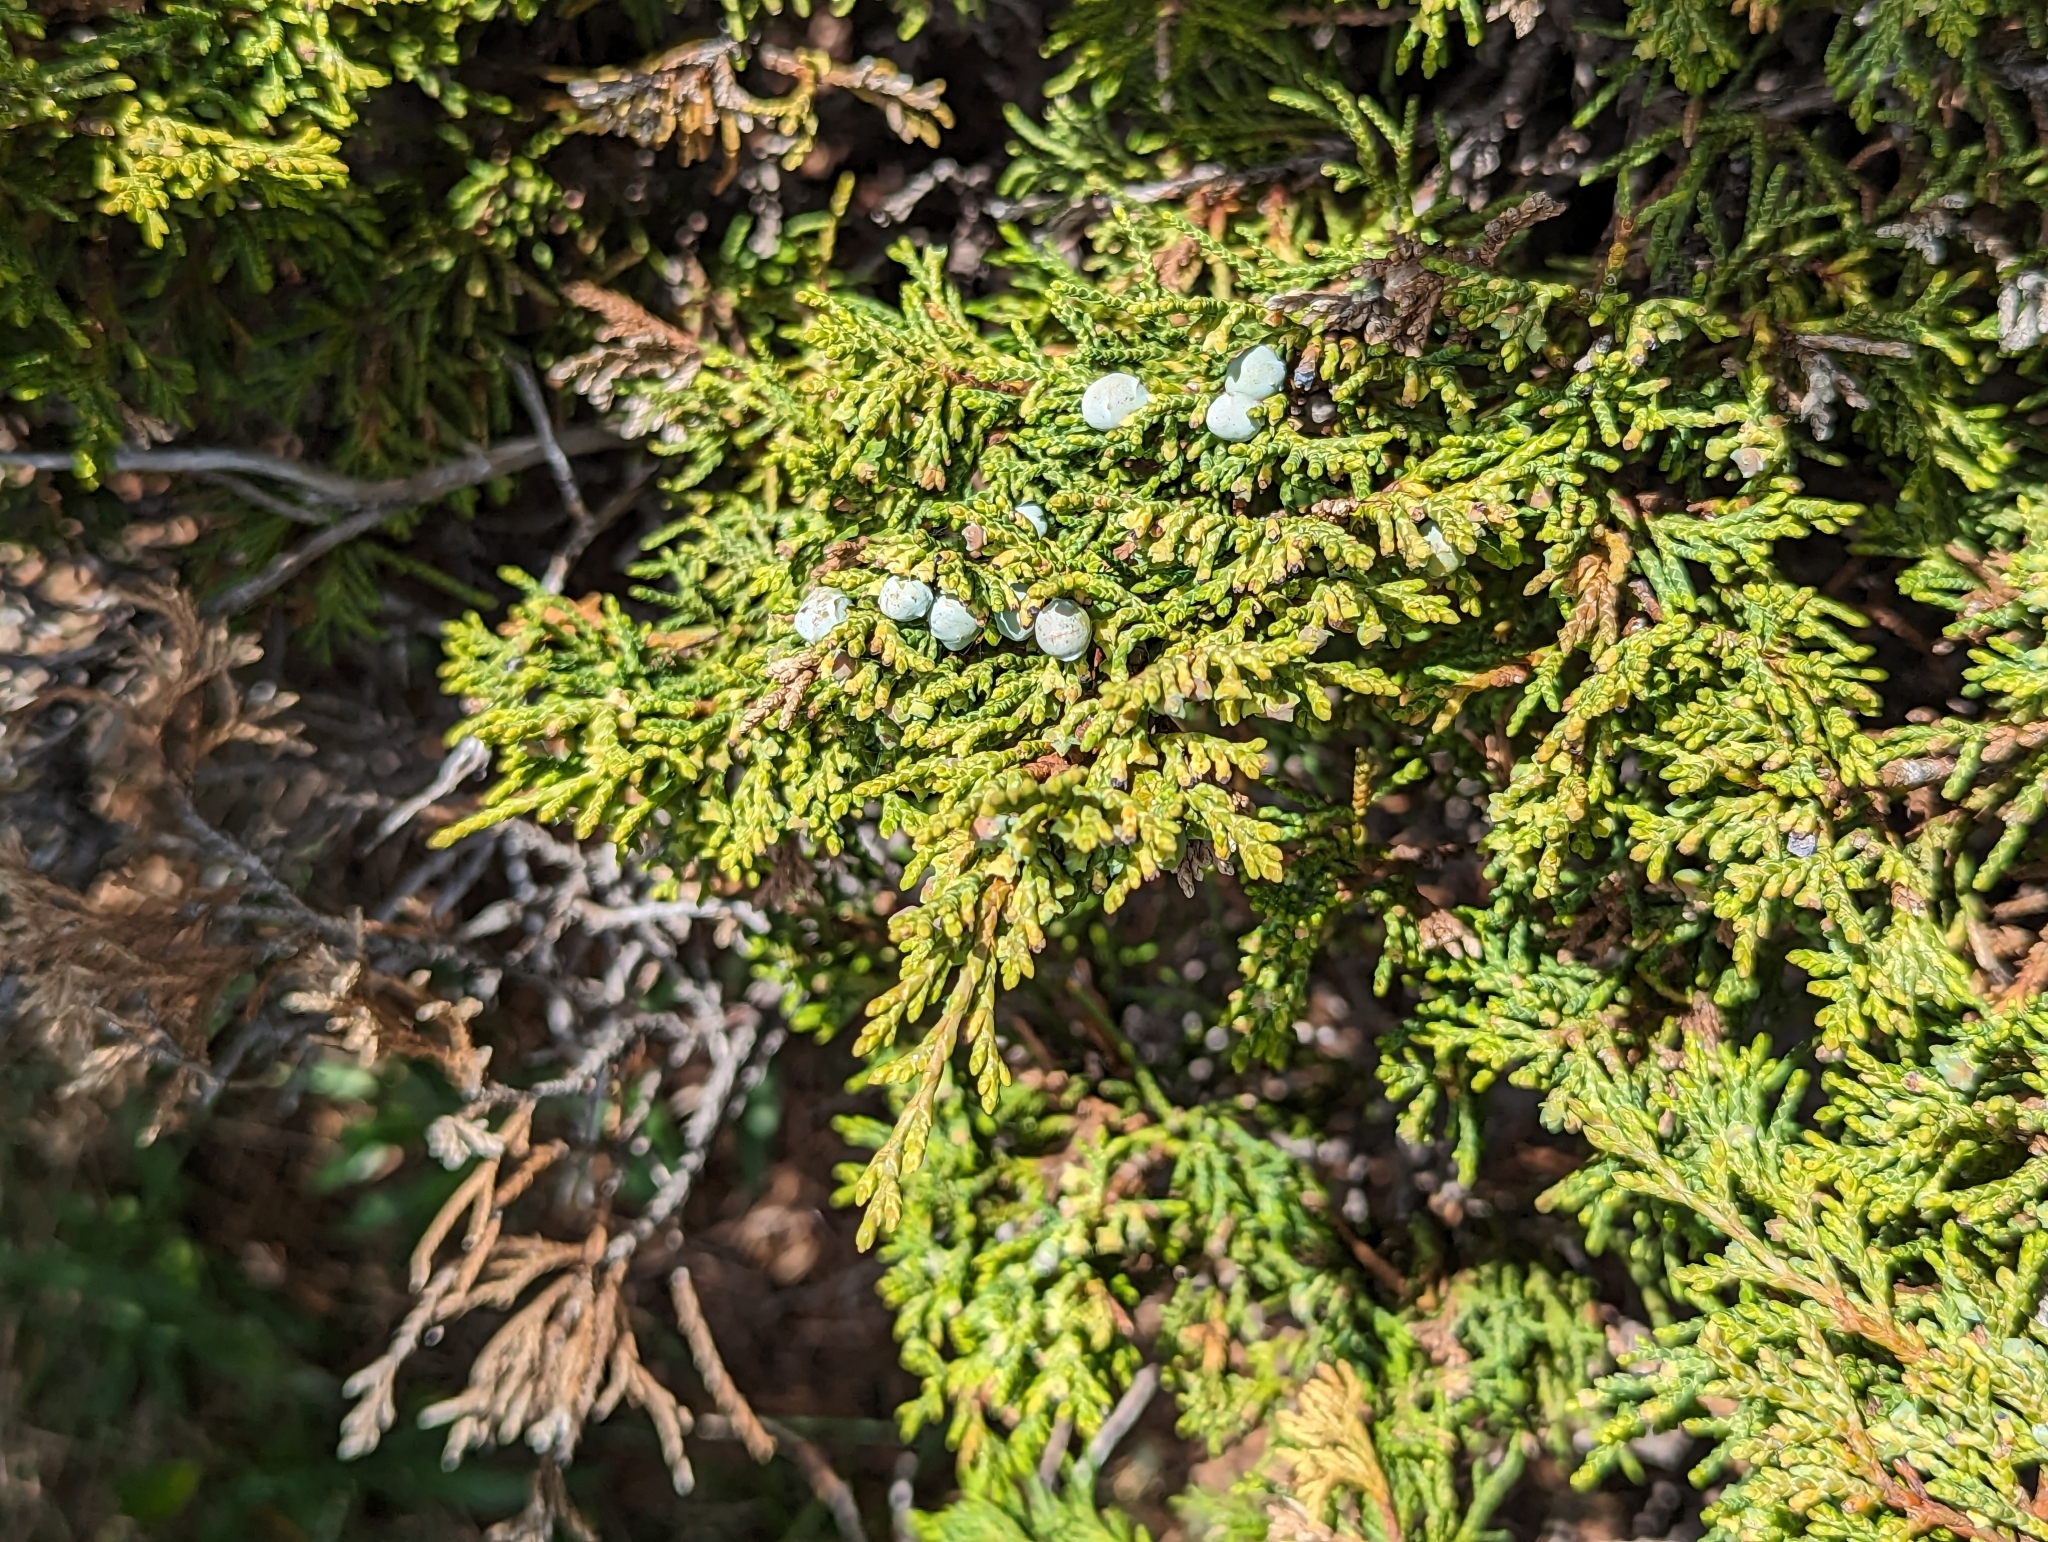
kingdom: Plantae
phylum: Tracheophyta
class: Pinopsida
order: Pinales
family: Cupressaceae
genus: Juniperus
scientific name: Juniperus scopulorum
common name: Rocky mountain juniper
